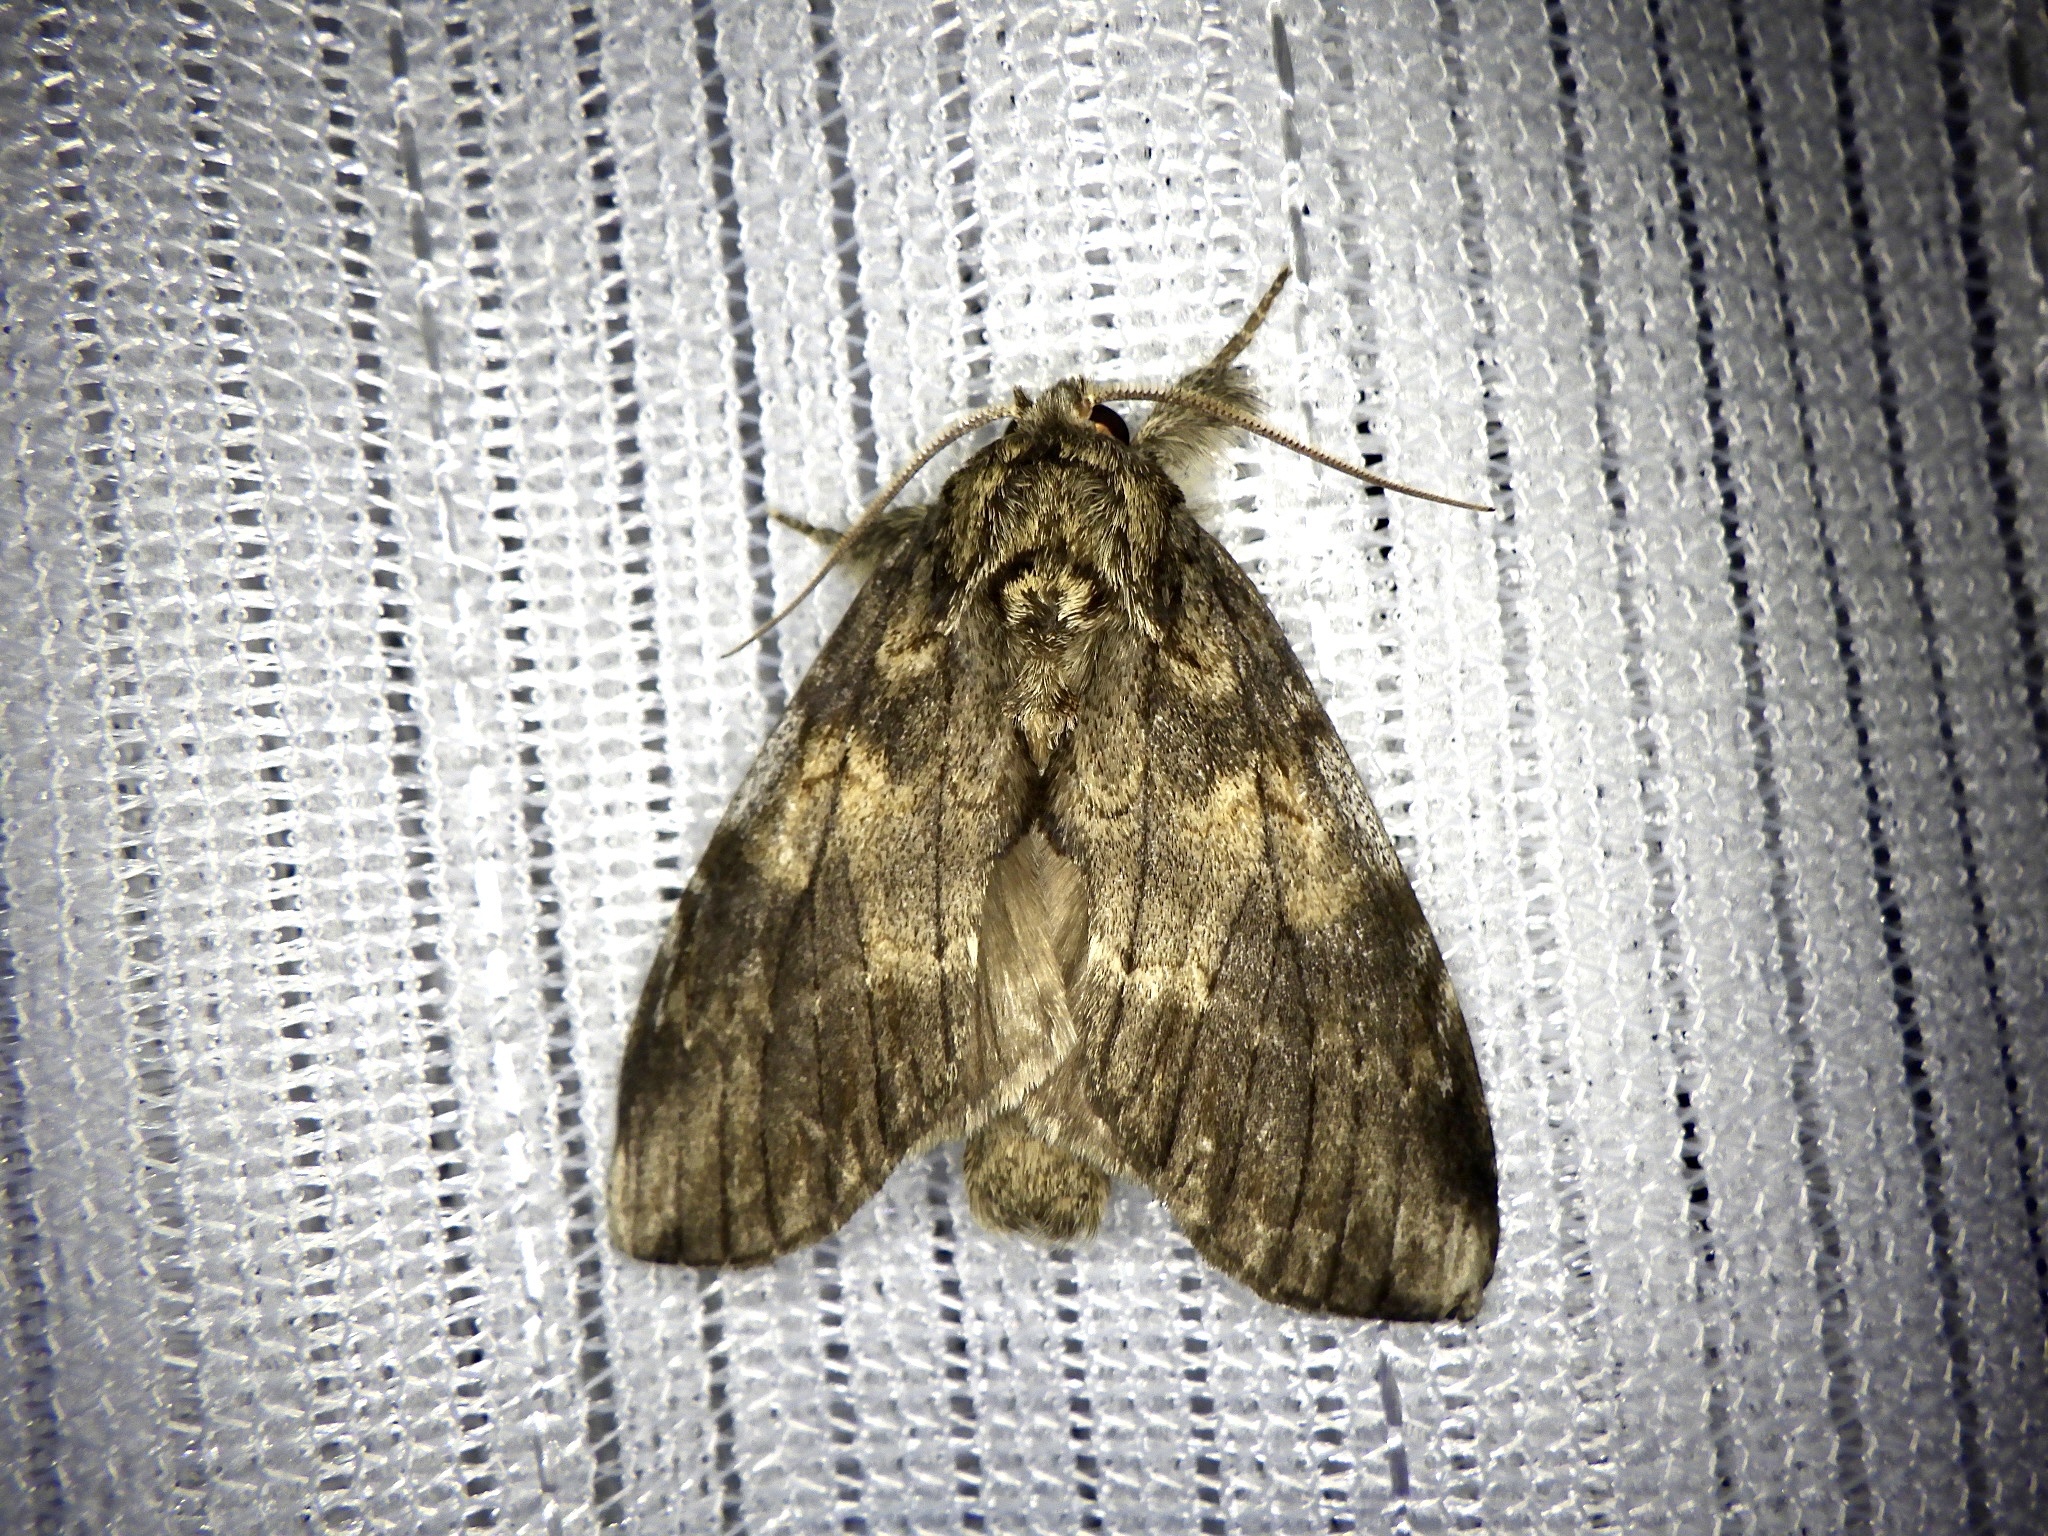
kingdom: Animalia
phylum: Arthropoda
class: Insecta
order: Lepidoptera
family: Notodontidae
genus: Peridea
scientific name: Peridea gigantea
